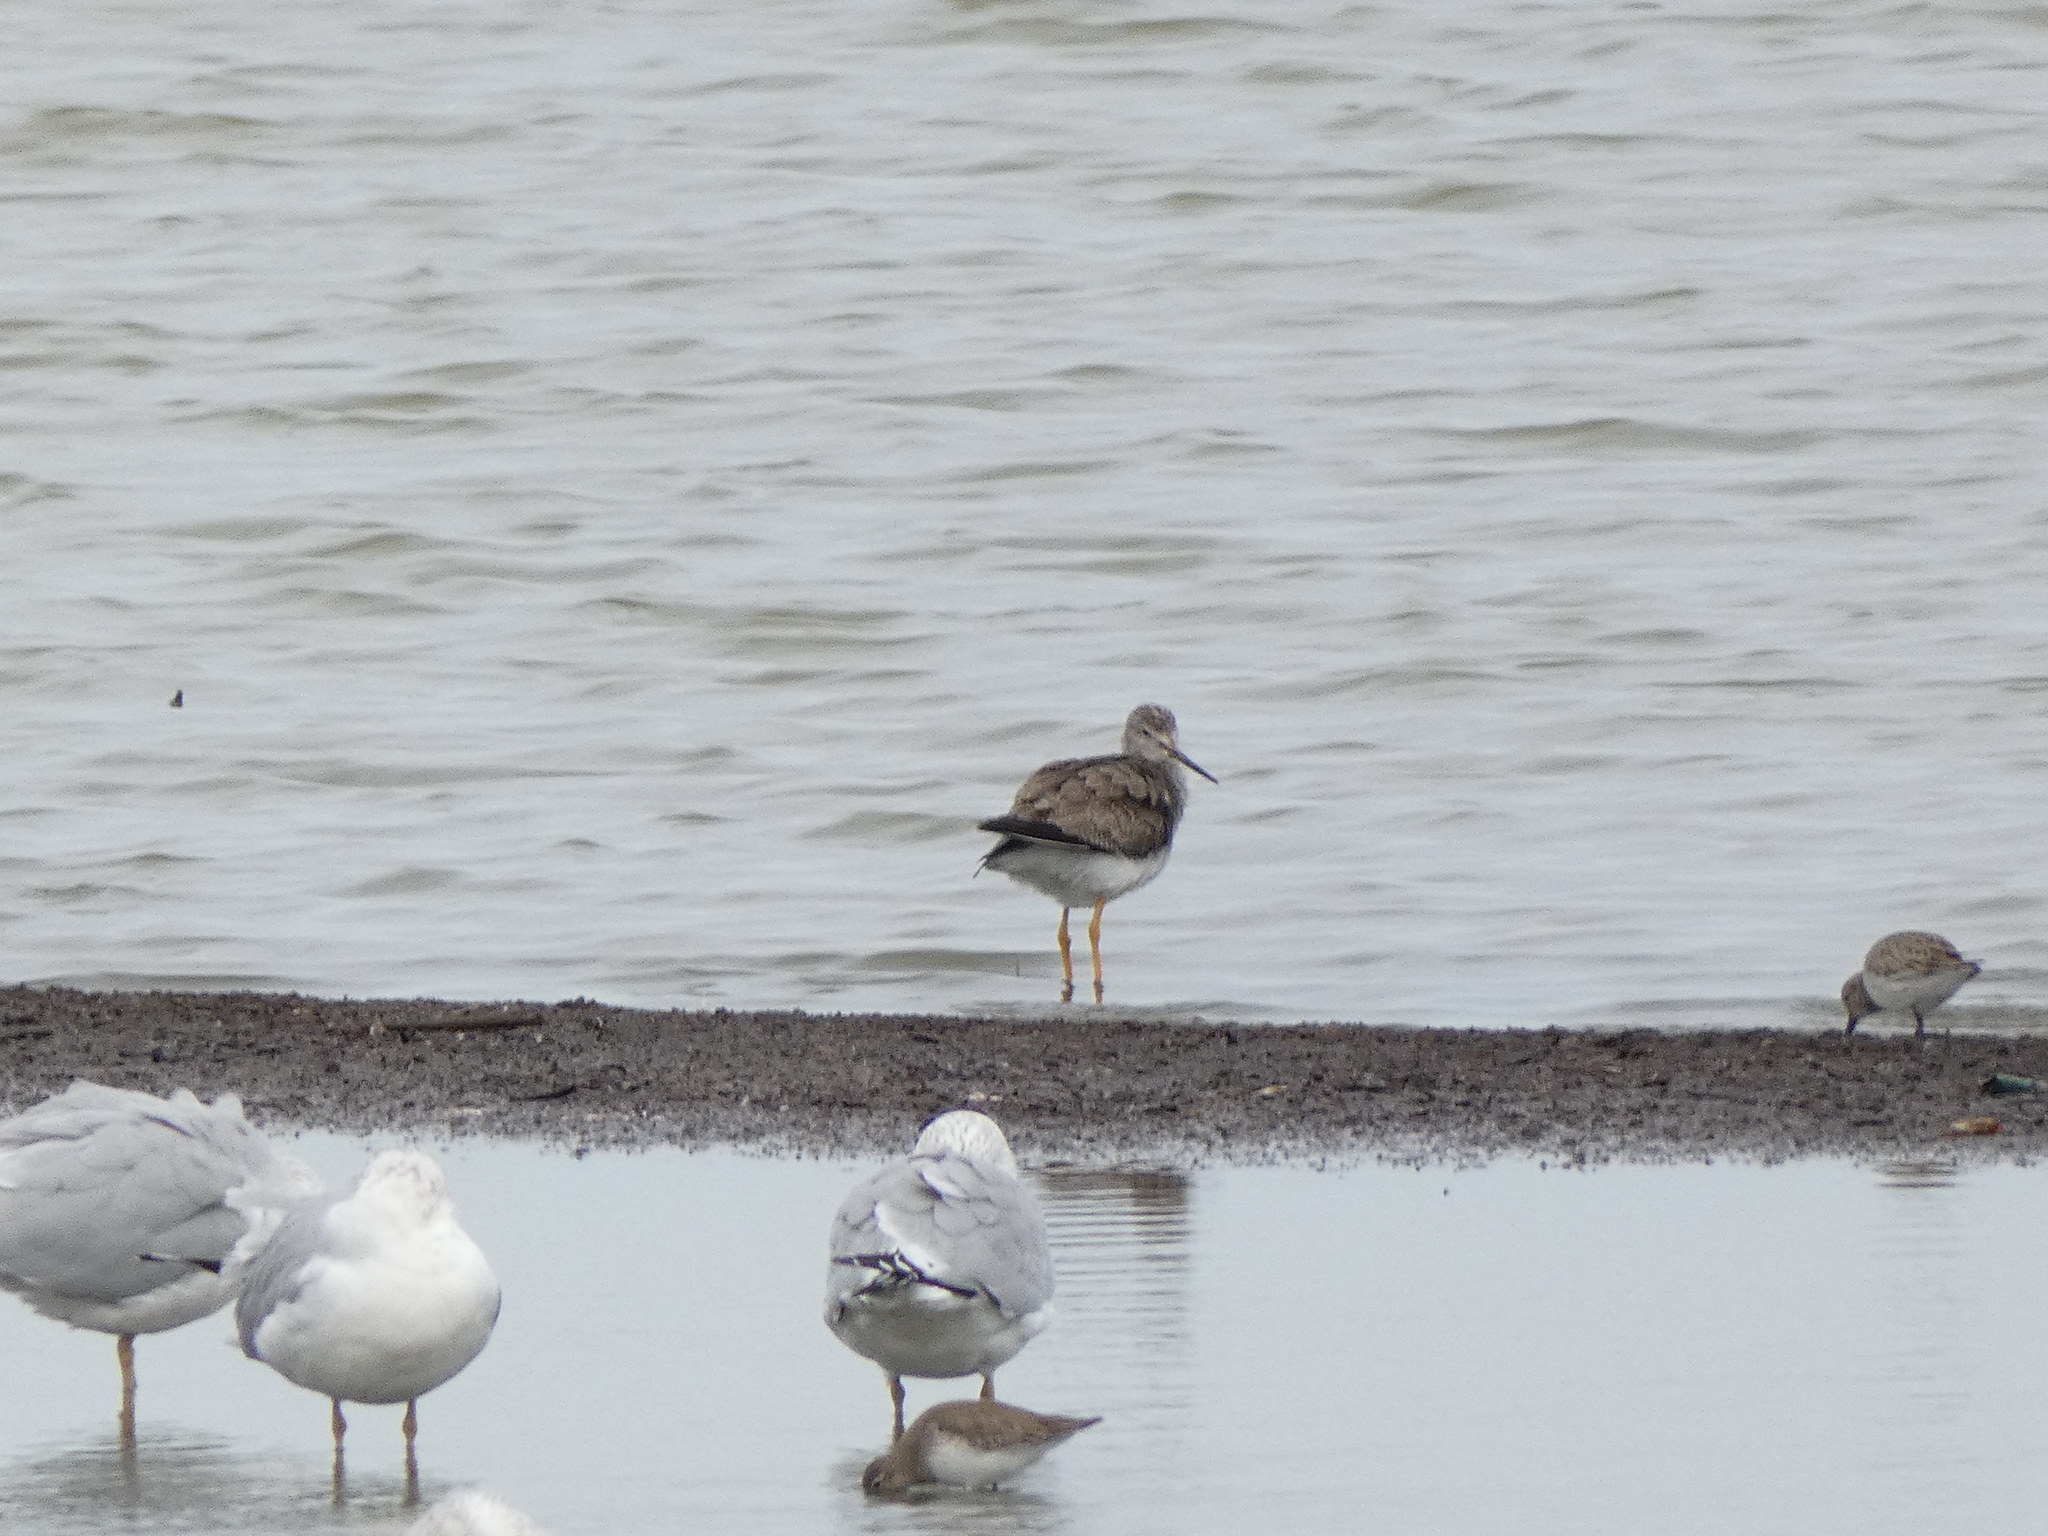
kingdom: Animalia
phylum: Chordata
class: Aves
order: Charadriiformes
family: Scolopacidae
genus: Tringa
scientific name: Tringa melanoleuca
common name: Greater yellowlegs
